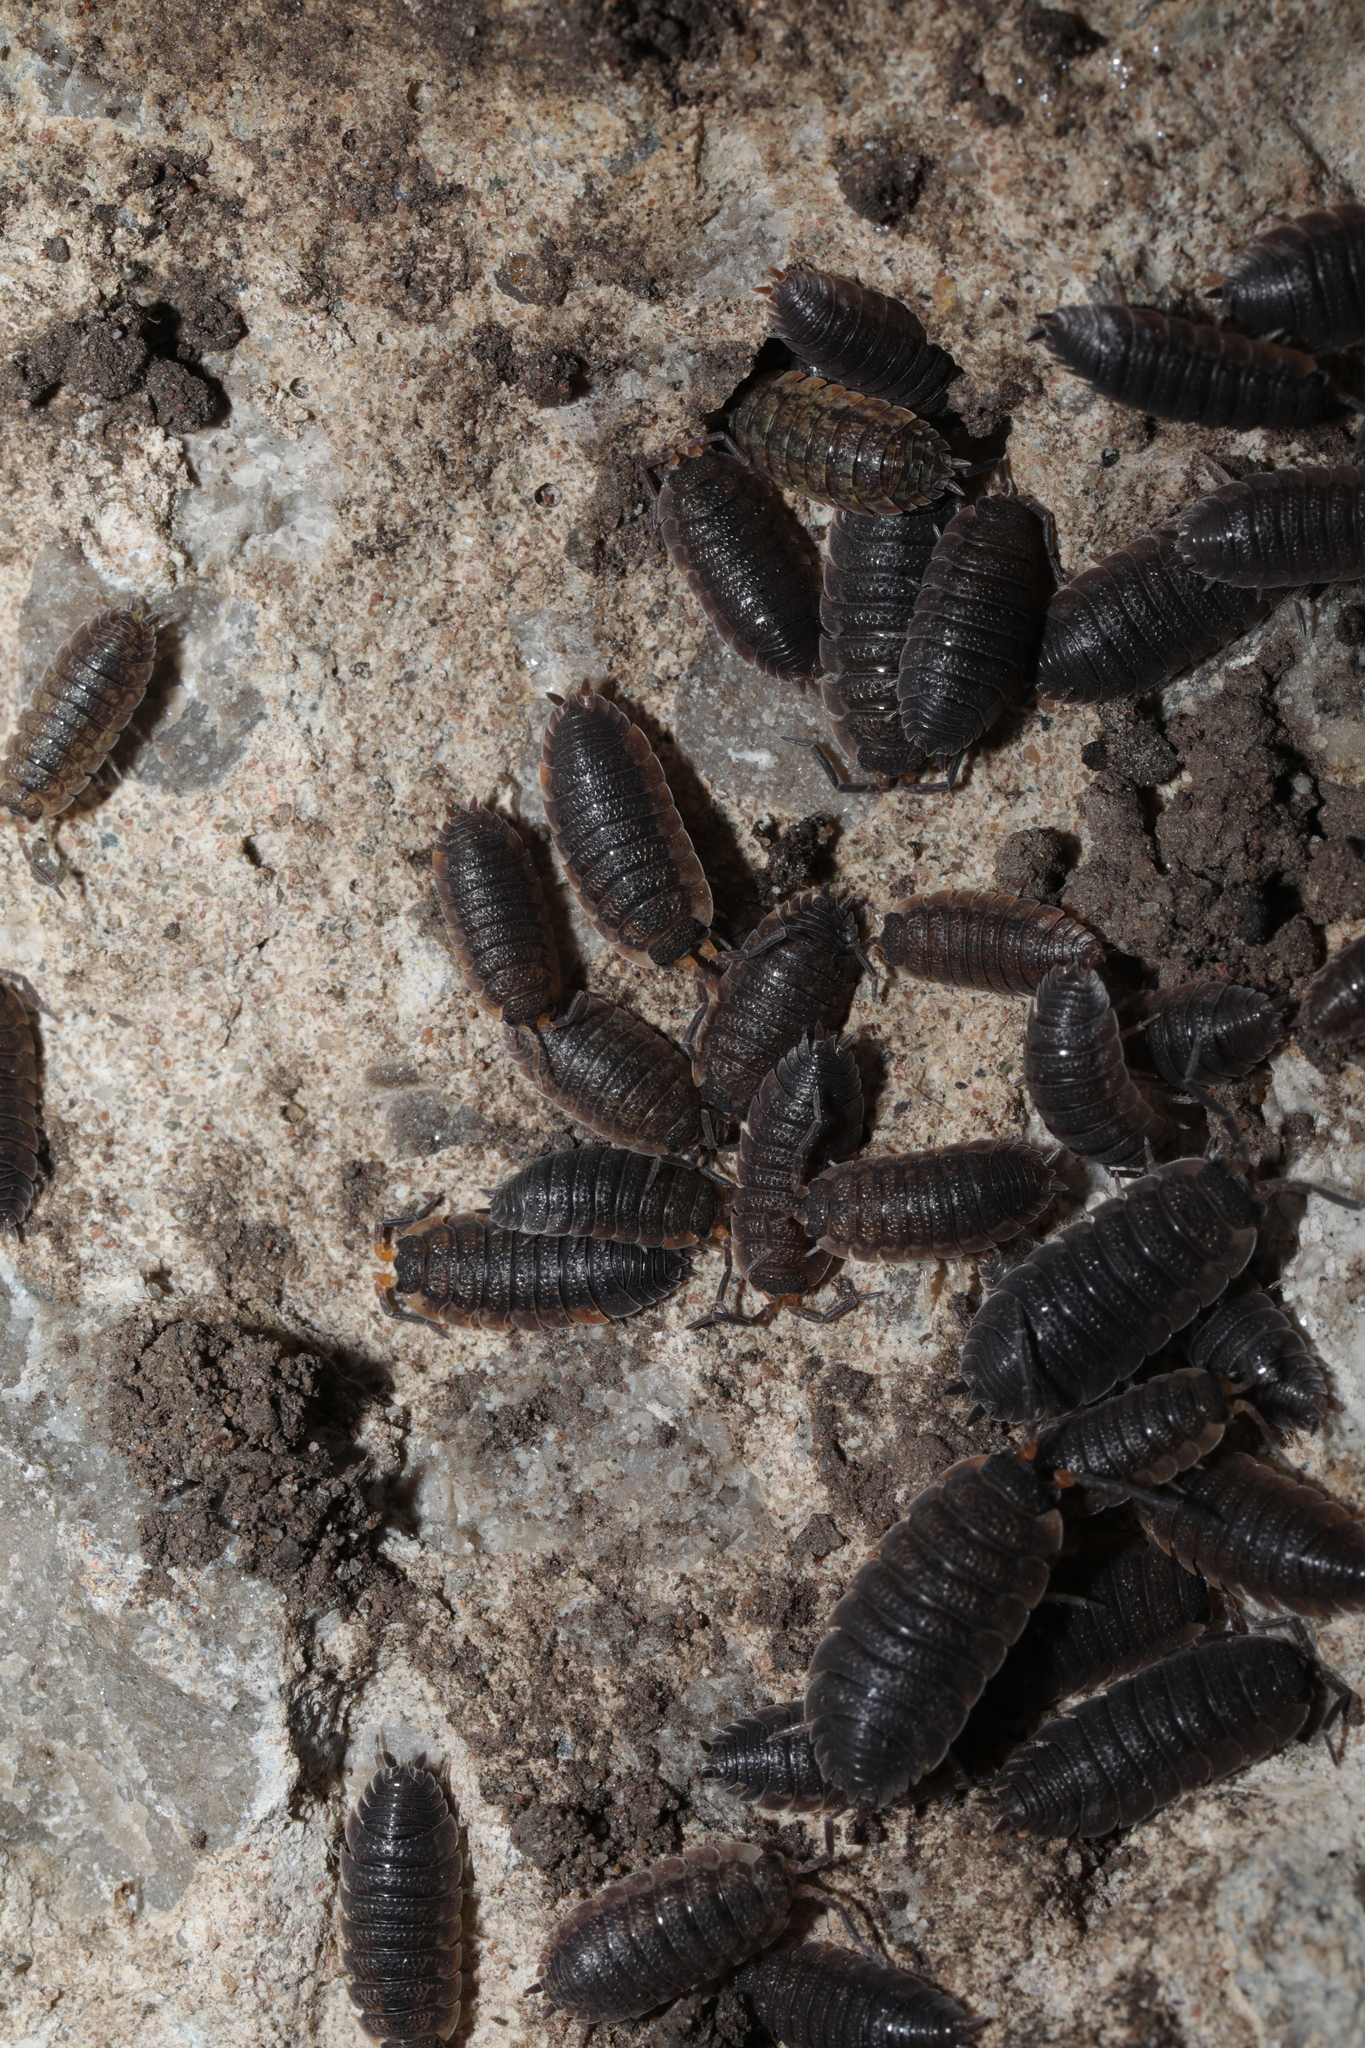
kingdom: Animalia
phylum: Arthropoda
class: Malacostraca
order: Isopoda
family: Porcellionidae
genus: Porcellio
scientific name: Porcellio scaber
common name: Common rough woodlouse
